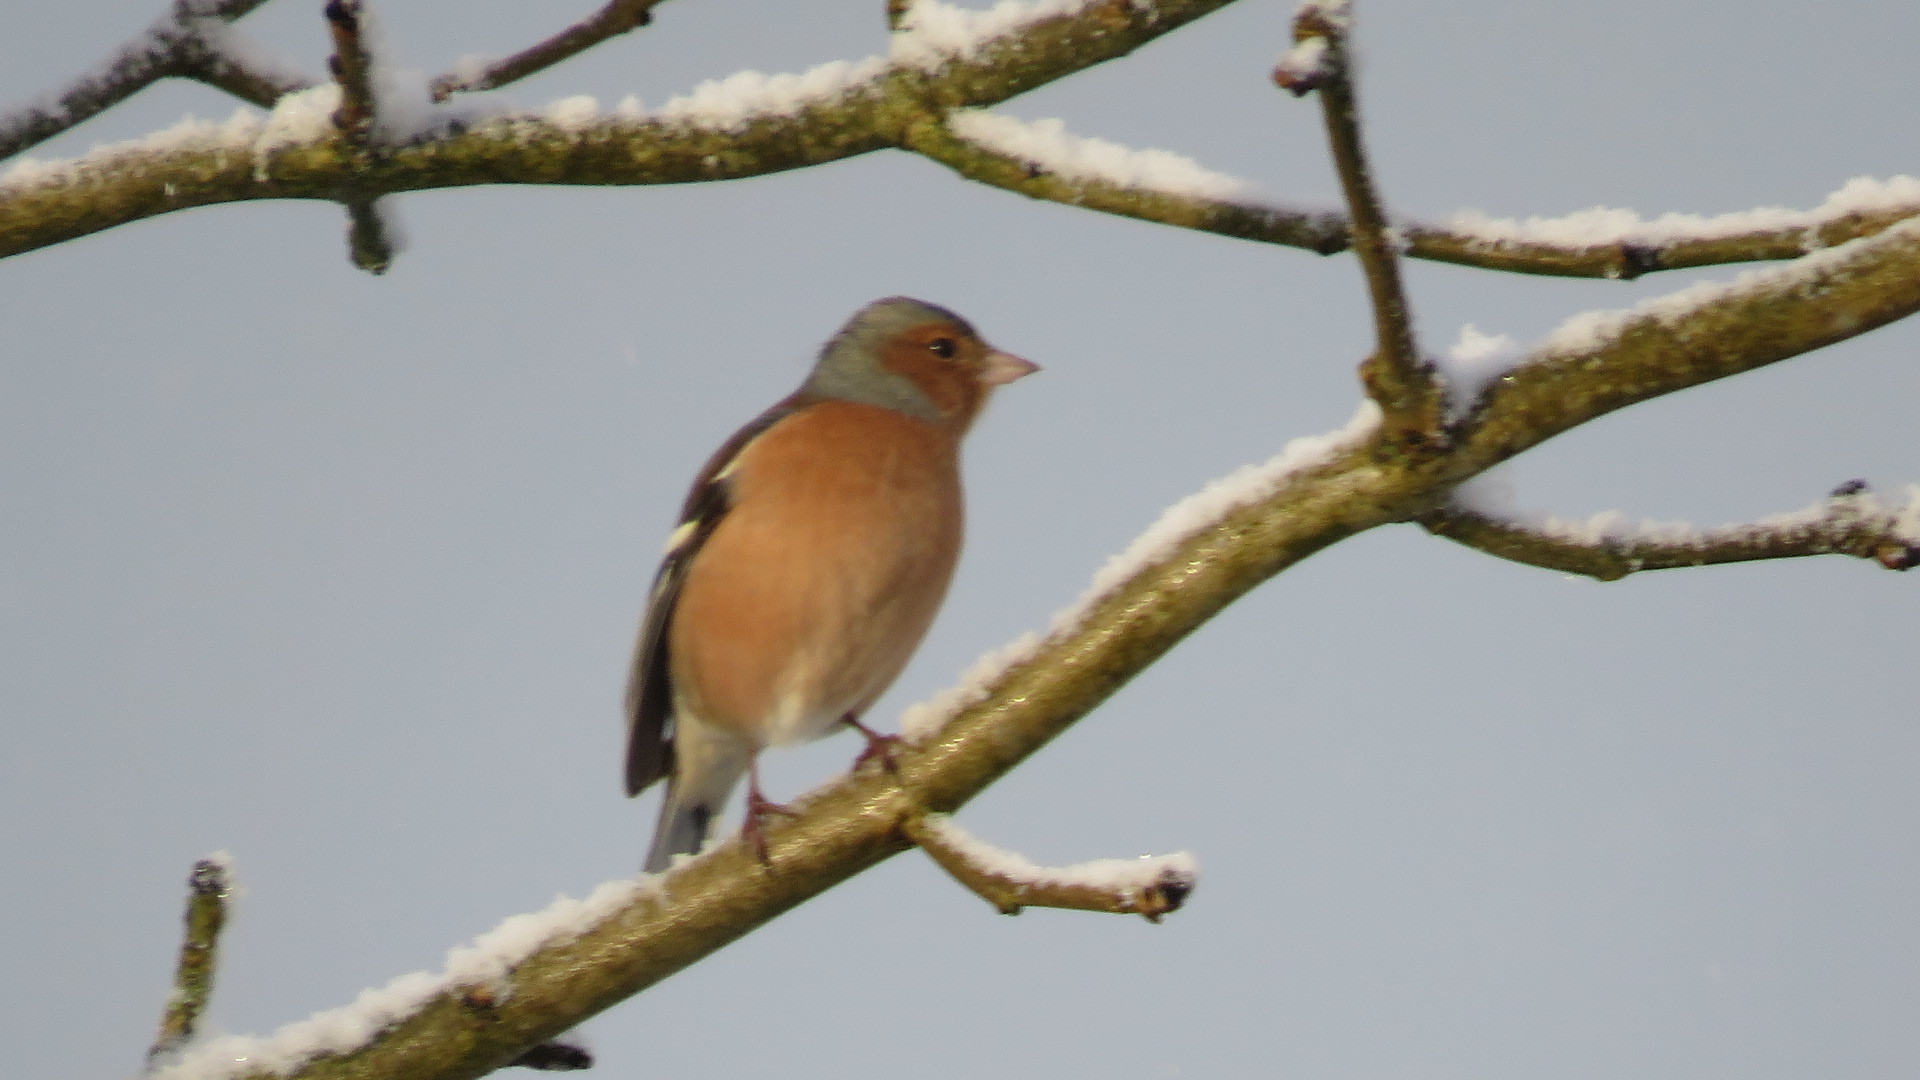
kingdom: Animalia
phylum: Chordata
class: Aves
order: Passeriformes
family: Fringillidae
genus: Fringilla
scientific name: Fringilla coelebs
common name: Common chaffinch
